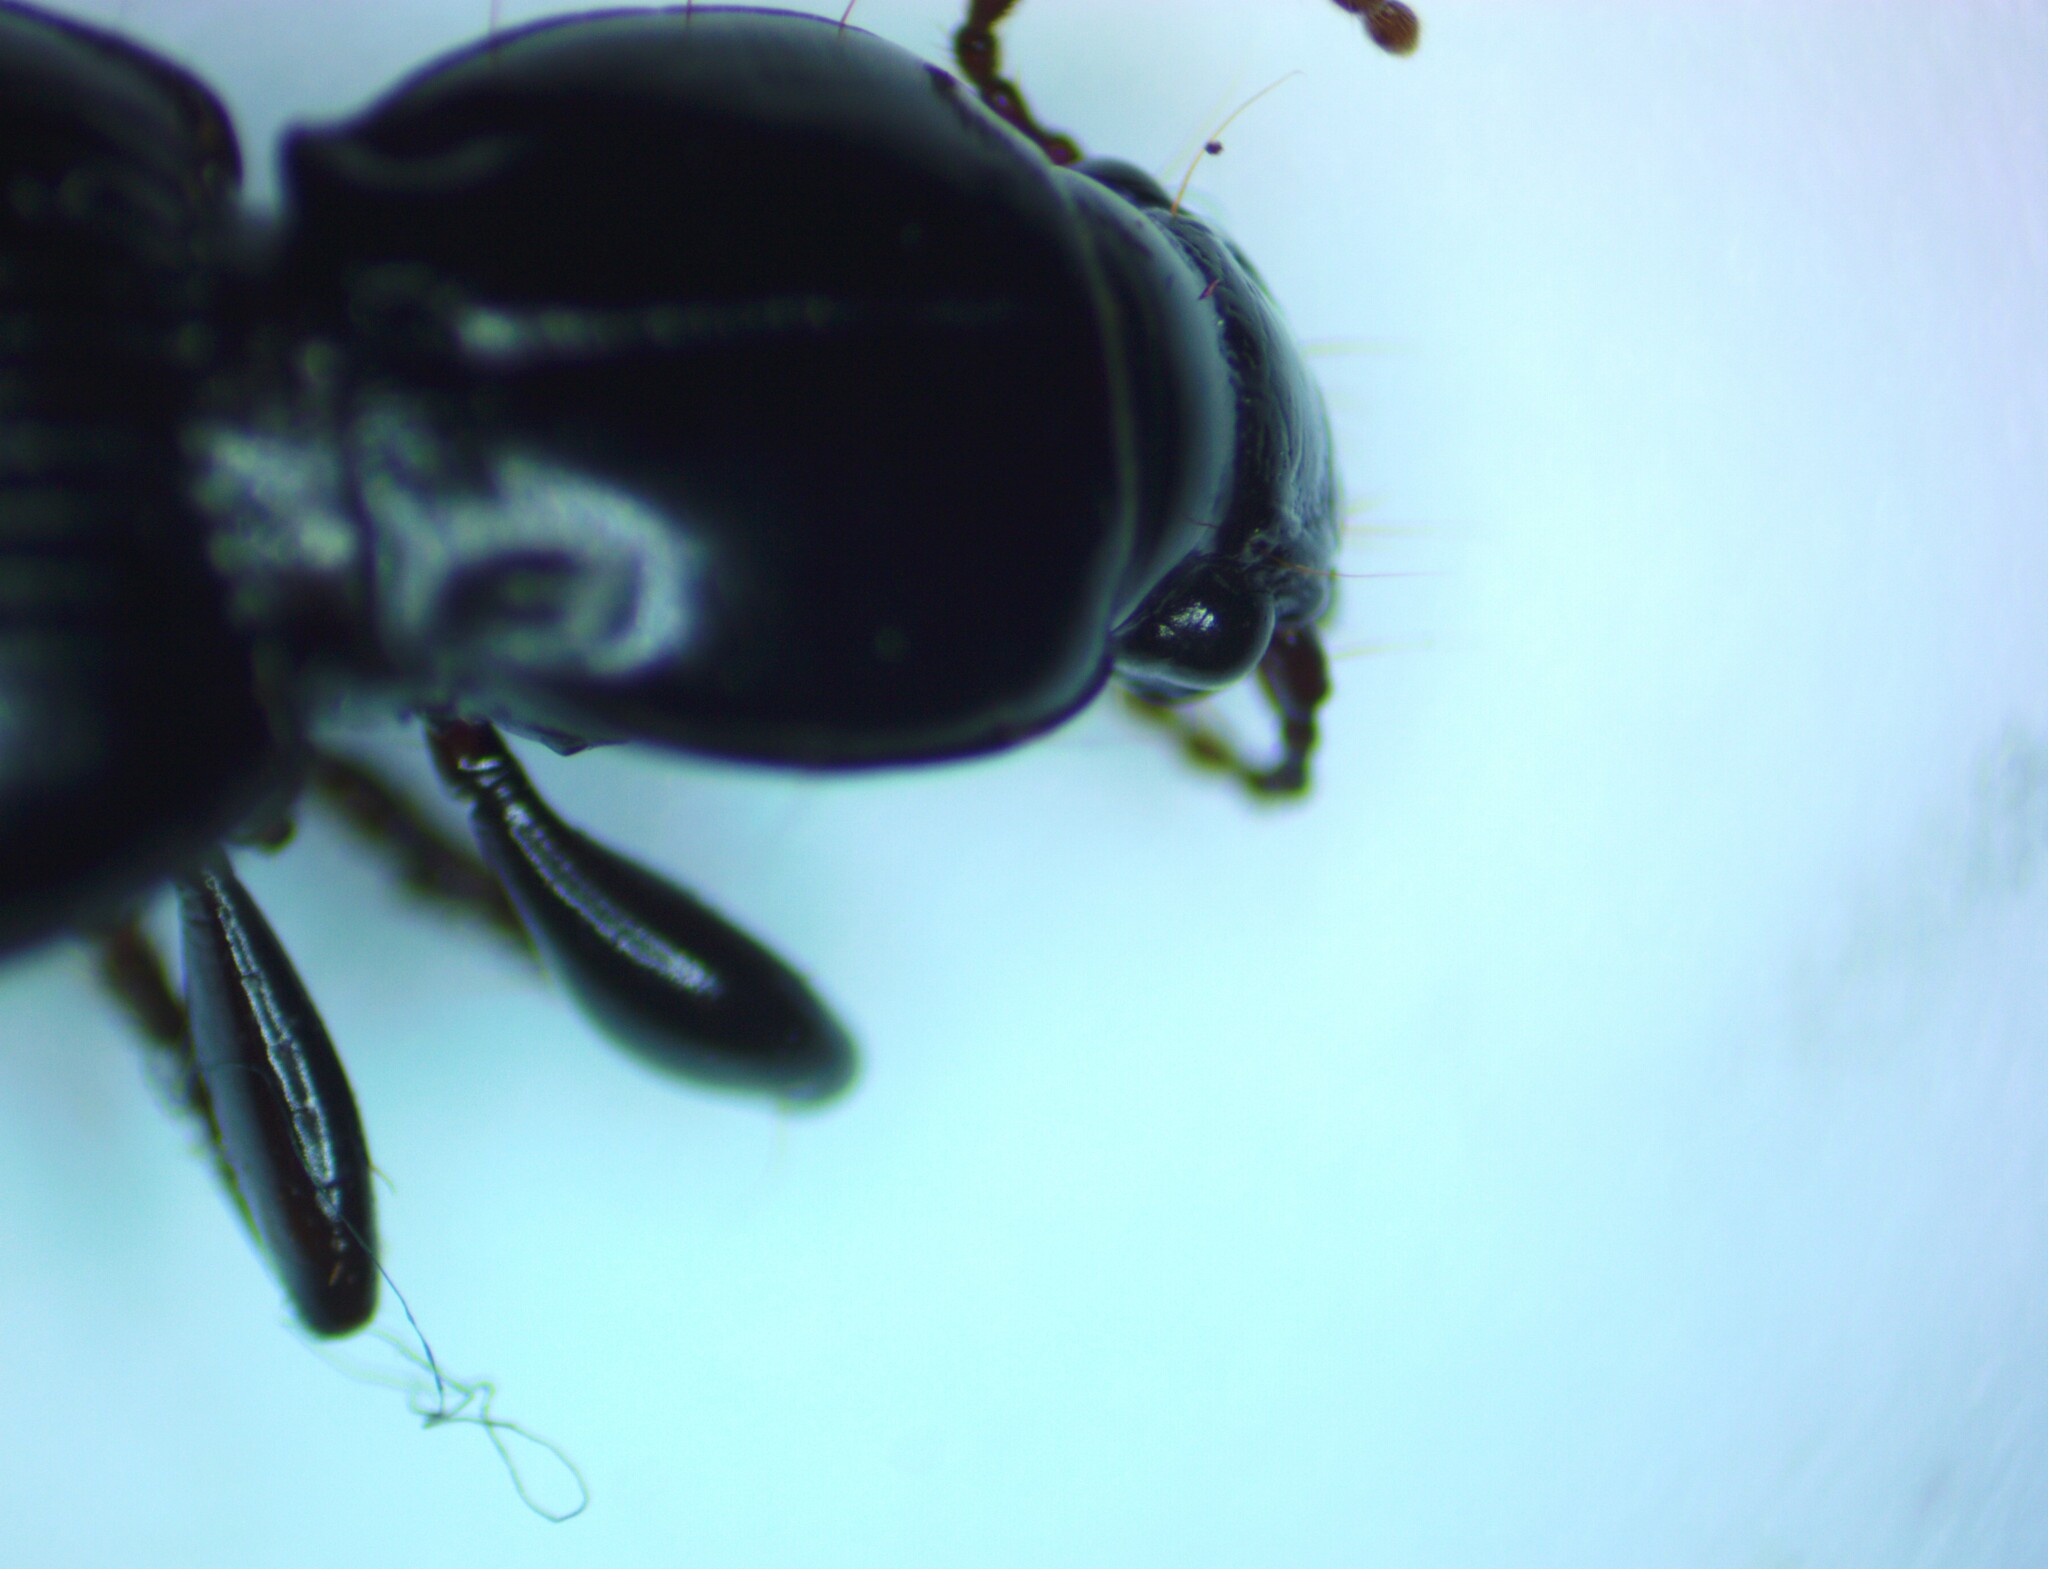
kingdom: Animalia
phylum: Arthropoda
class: Insecta
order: Coleoptera
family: Carabidae
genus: Diglymma
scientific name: Diglymma clivinoides
